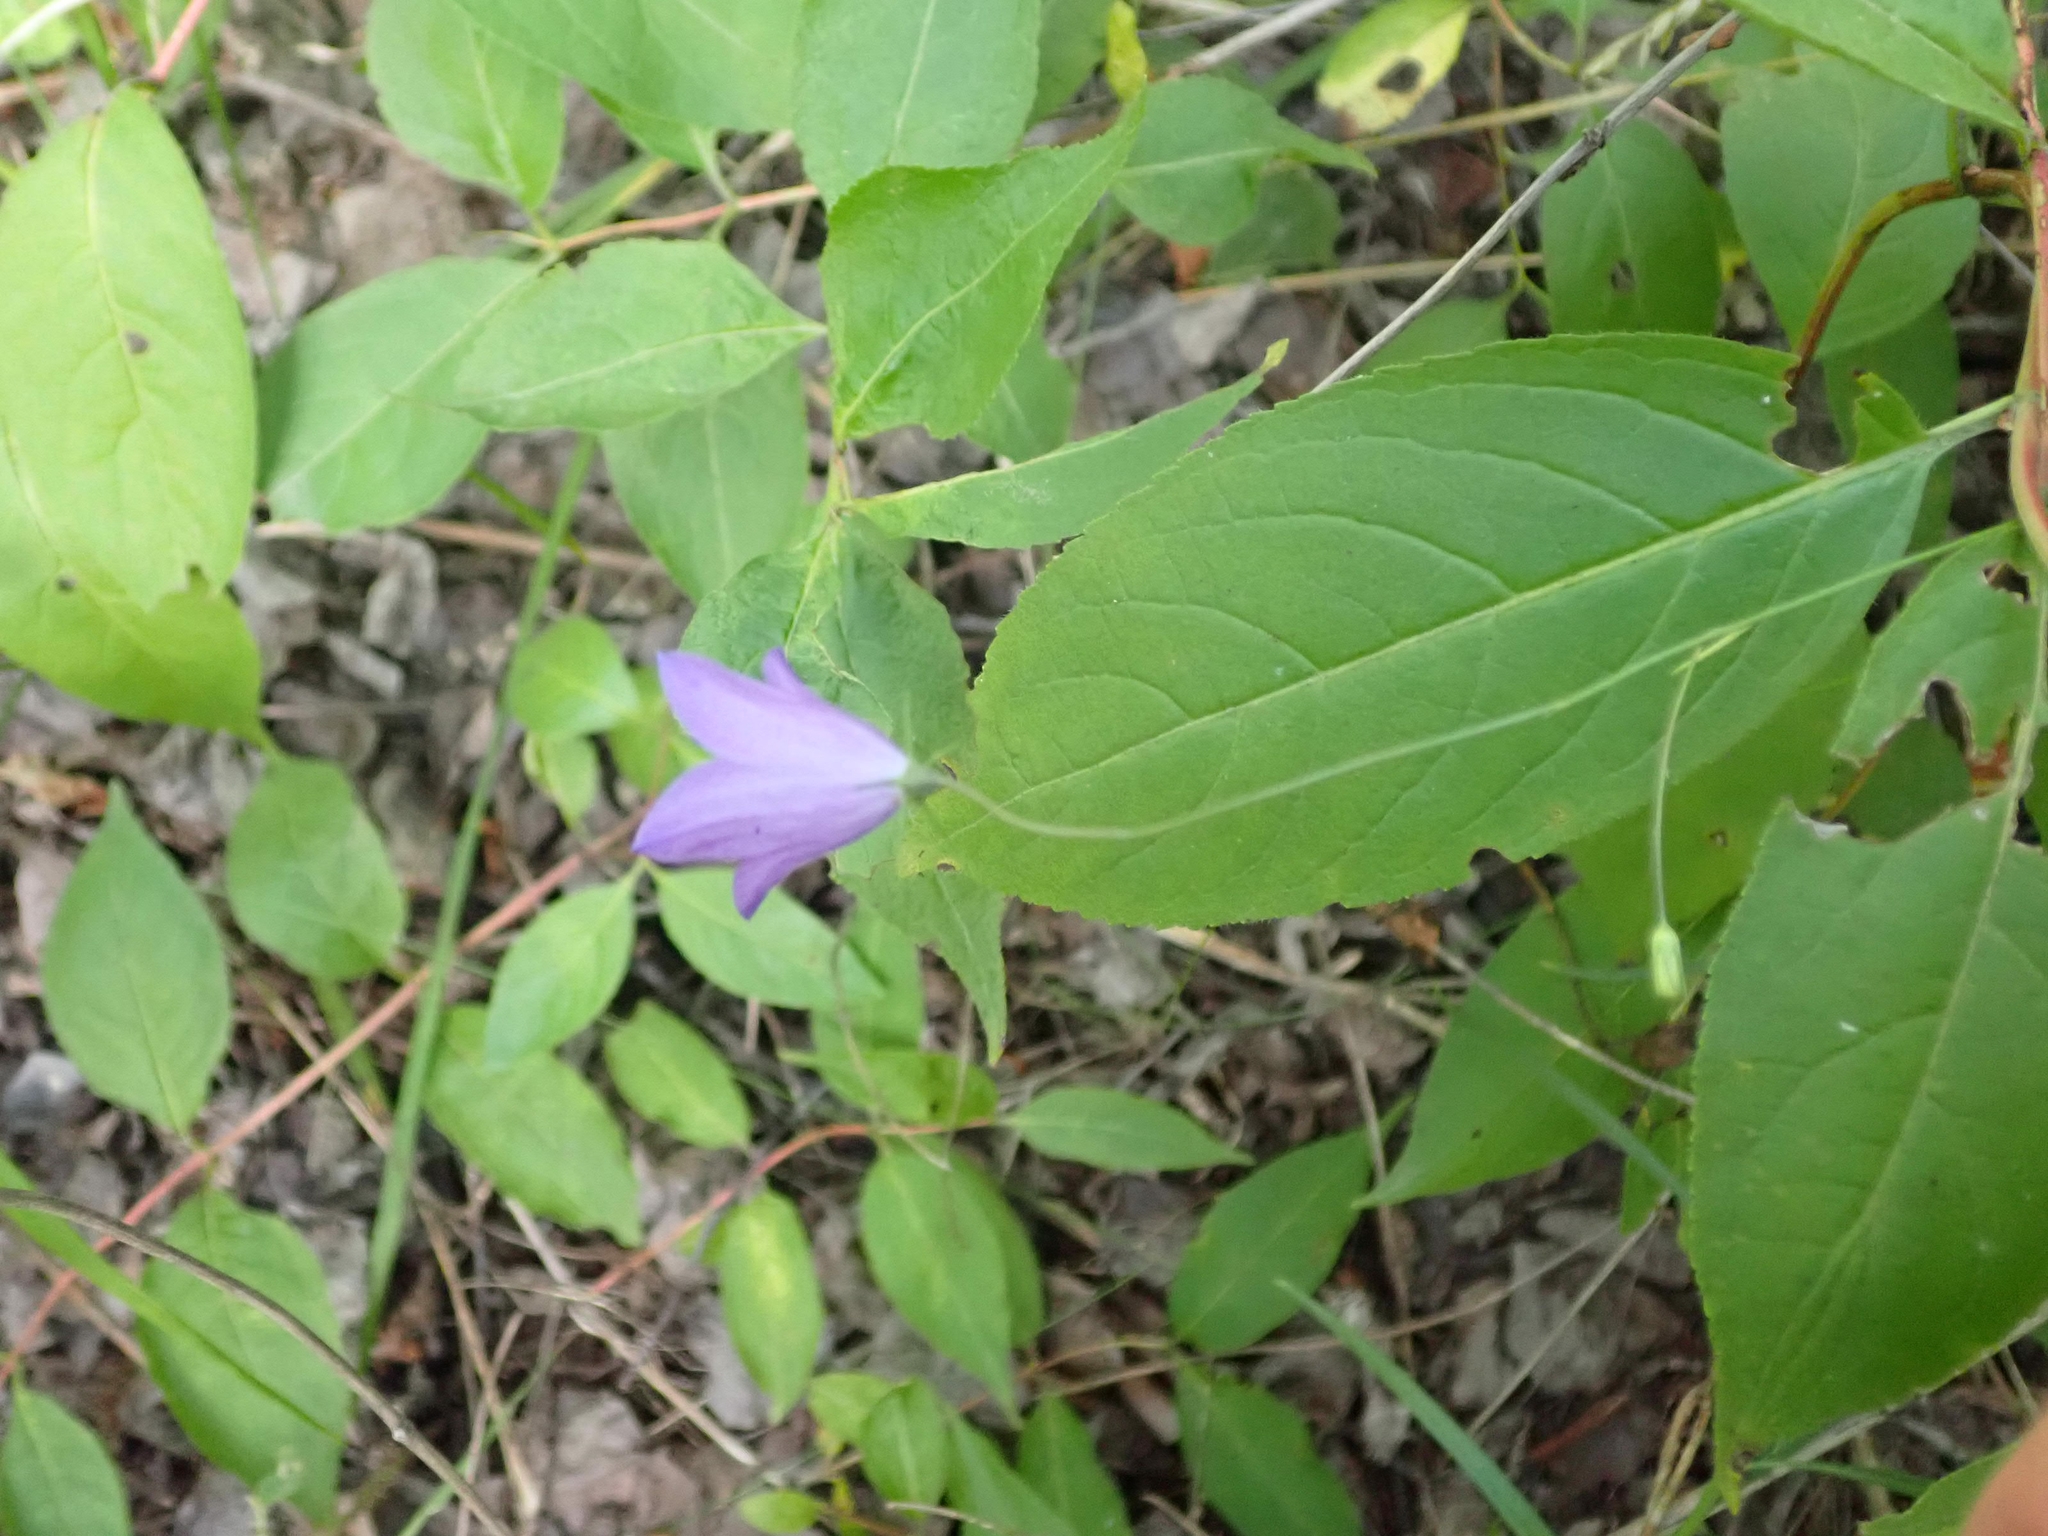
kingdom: Plantae
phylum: Tracheophyta
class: Magnoliopsida
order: Asterales
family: Campanulaceae
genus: Campanula
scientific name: Campanula petiolata
